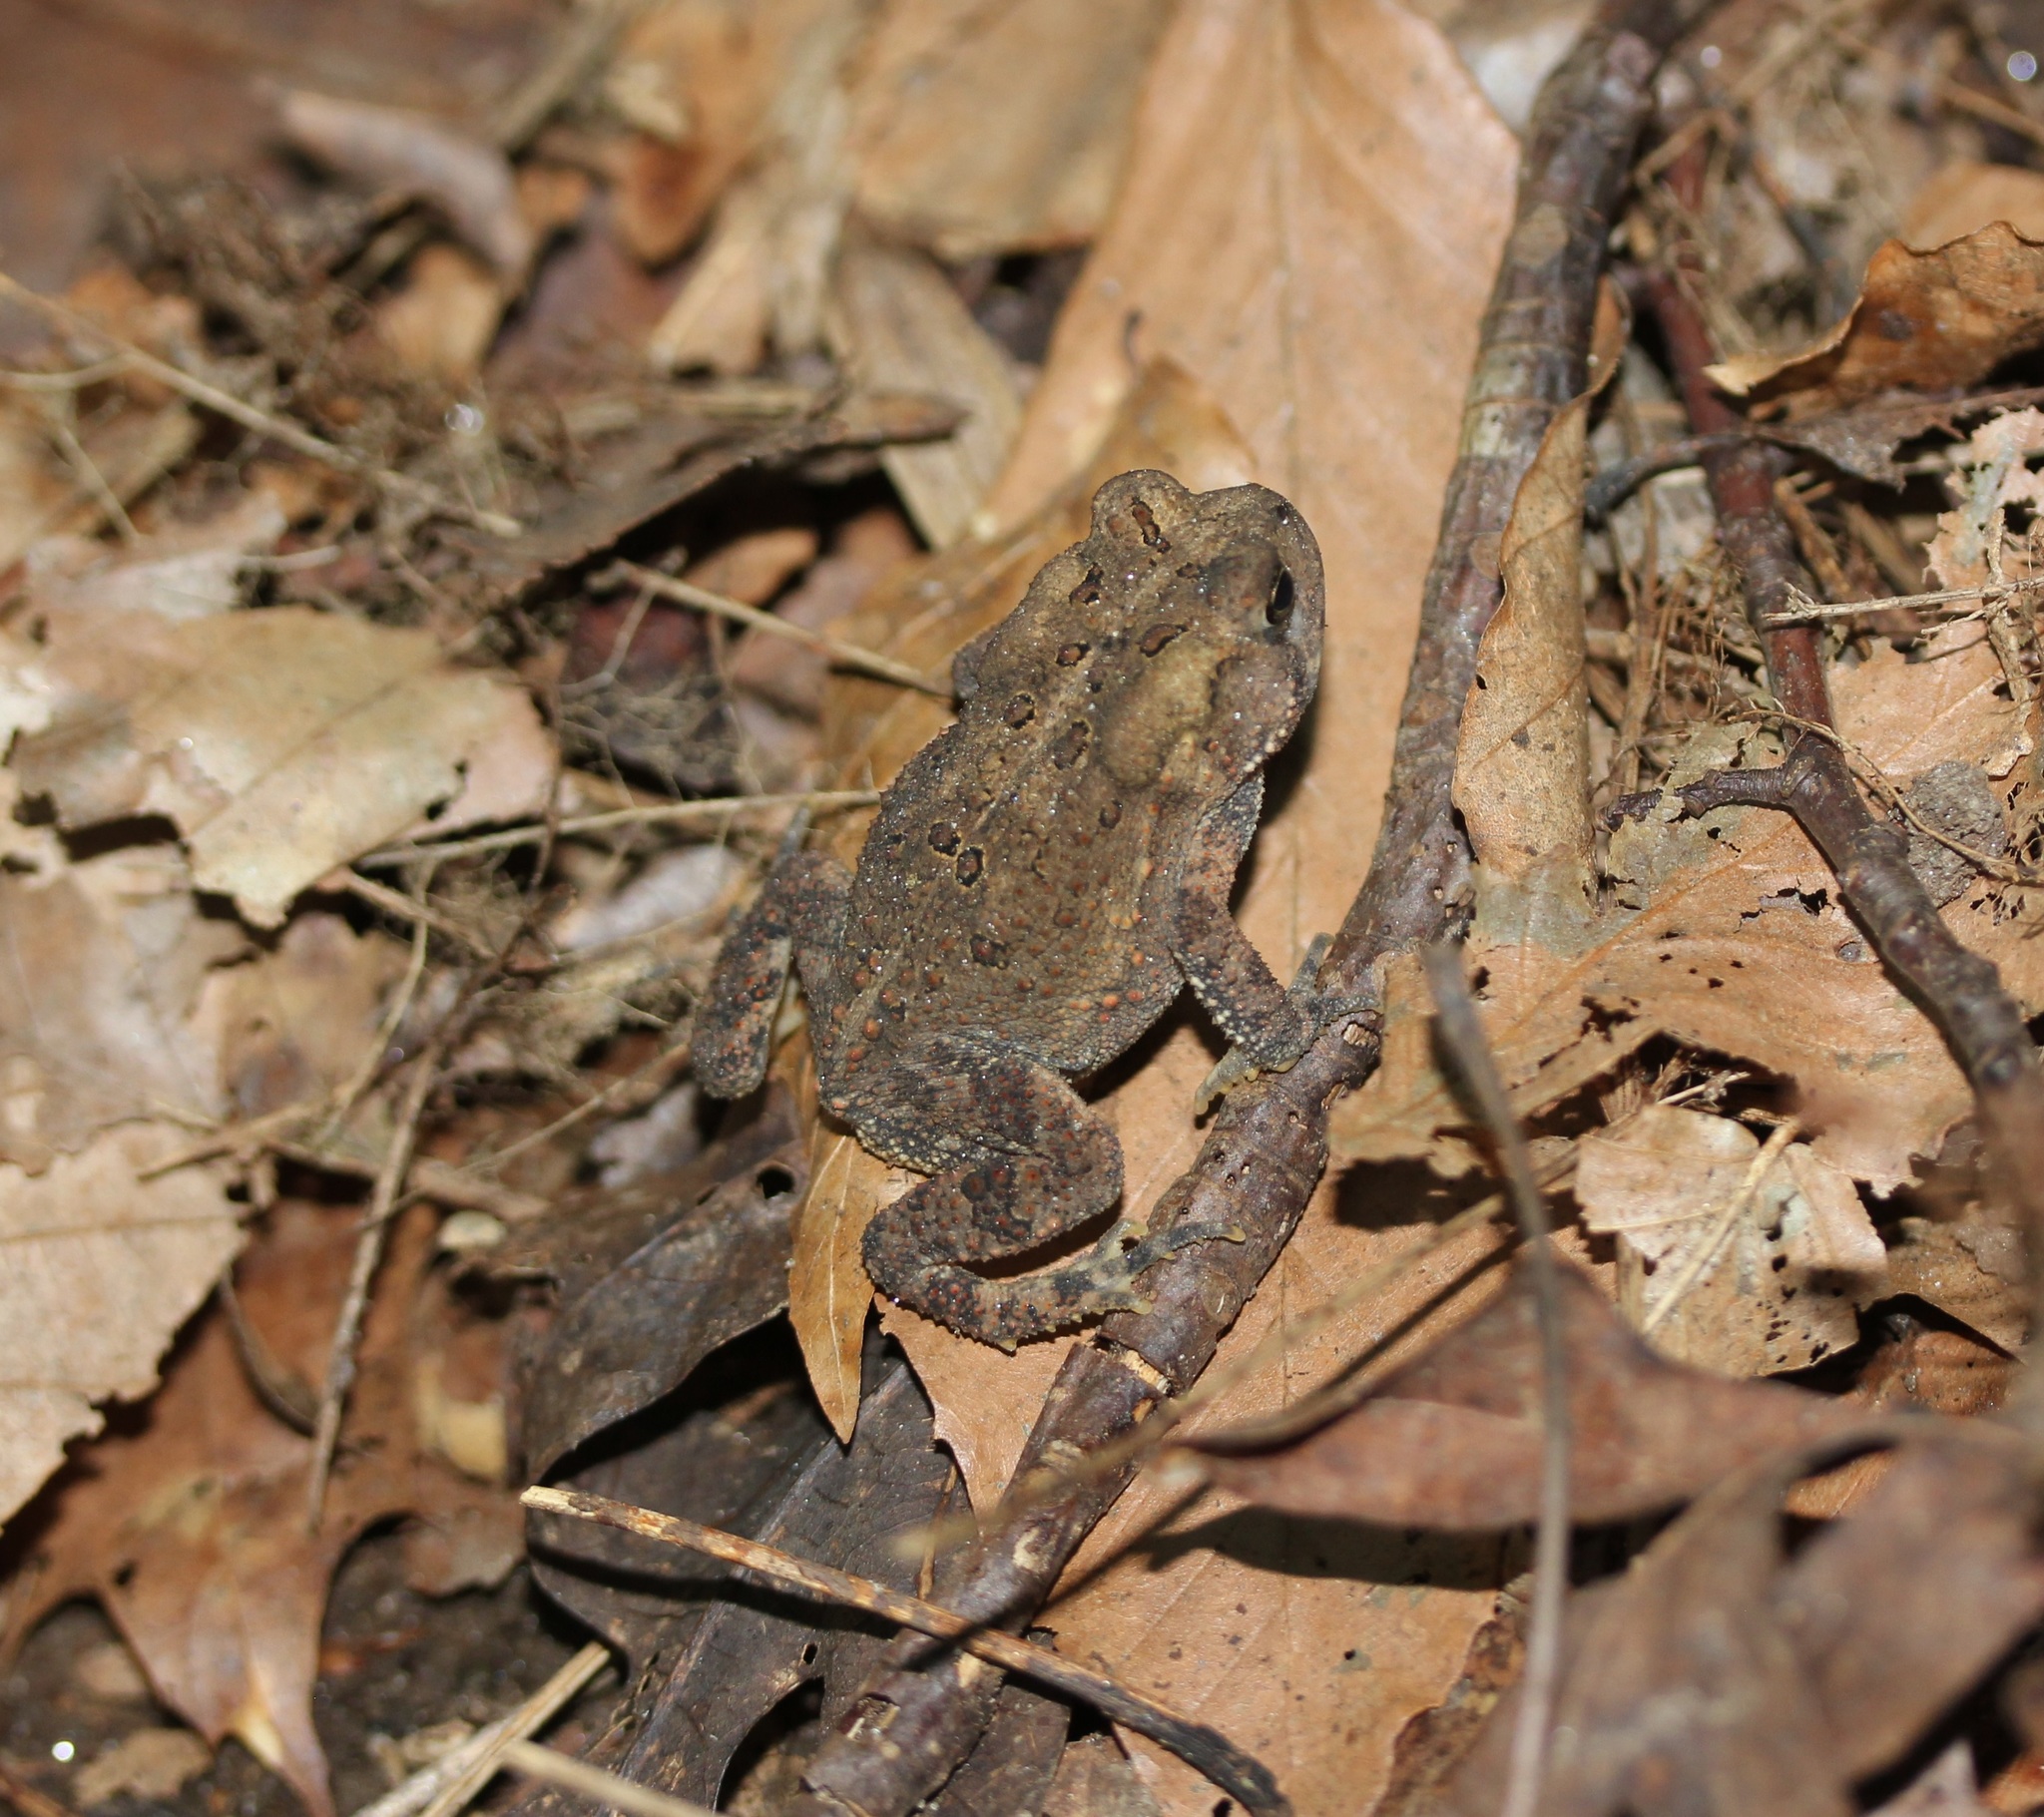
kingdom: Animalia
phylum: Chordata
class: Amphibia
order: Anura
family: Bufonidae
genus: Anaxyrus
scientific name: Anaxyrus americanus
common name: American toad
